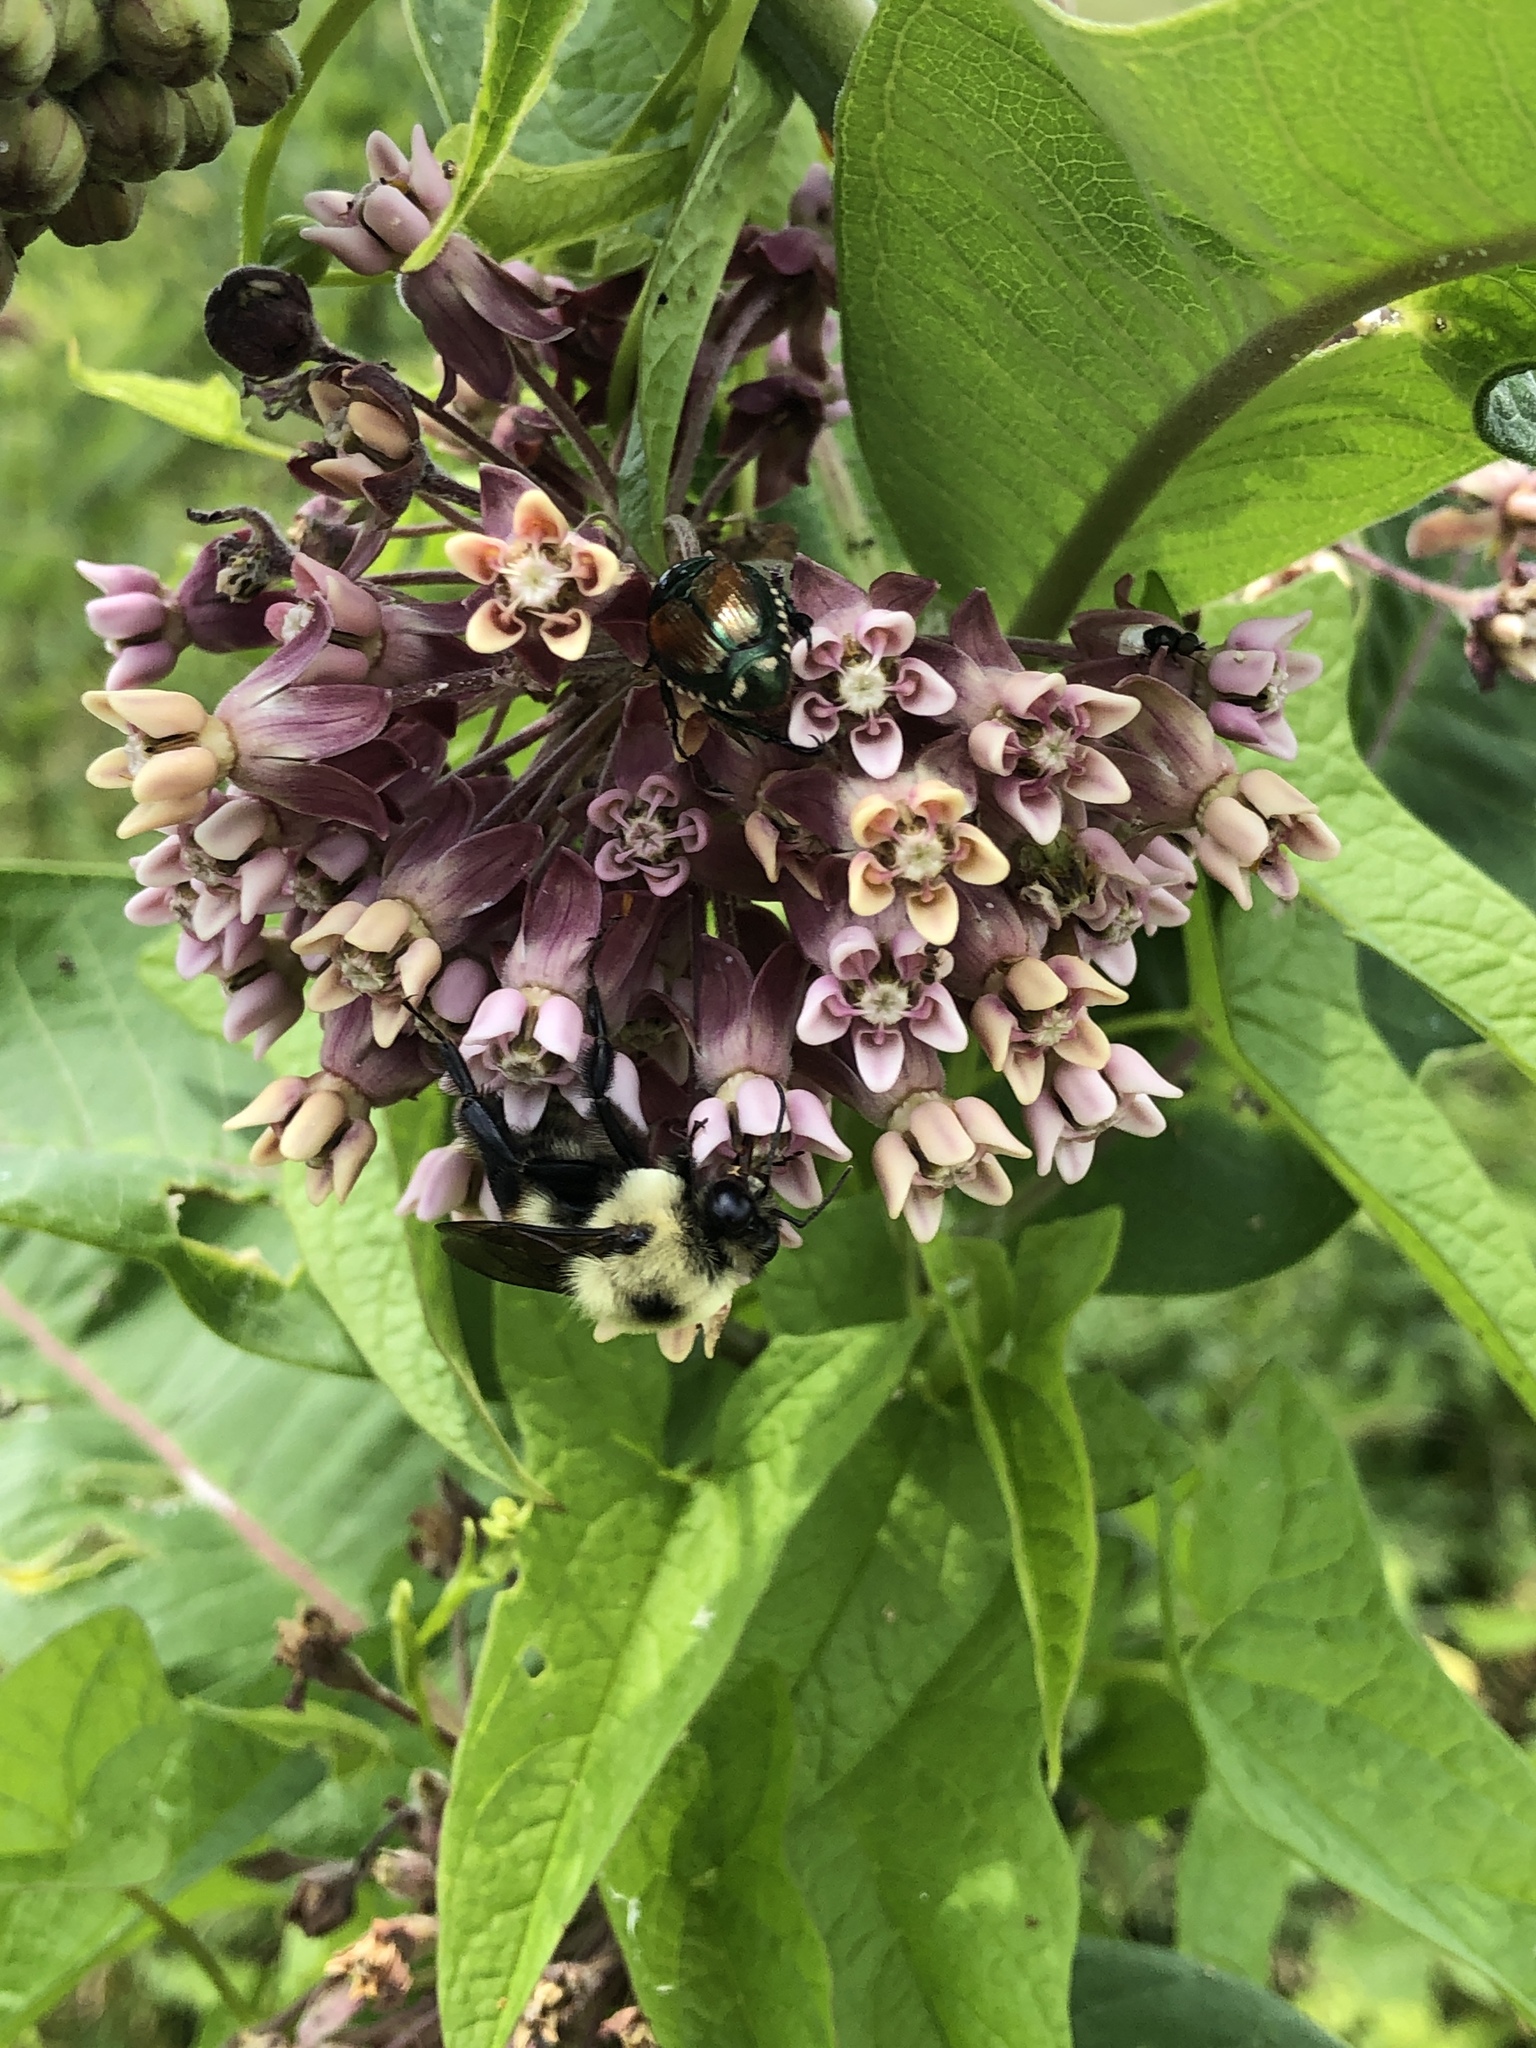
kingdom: Animalia
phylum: Arthropoda
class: Insecta
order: Hymenoptera
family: Apidae
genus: Bombus
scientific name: Bombus griseocollis
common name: Brown-belted bumble bee
